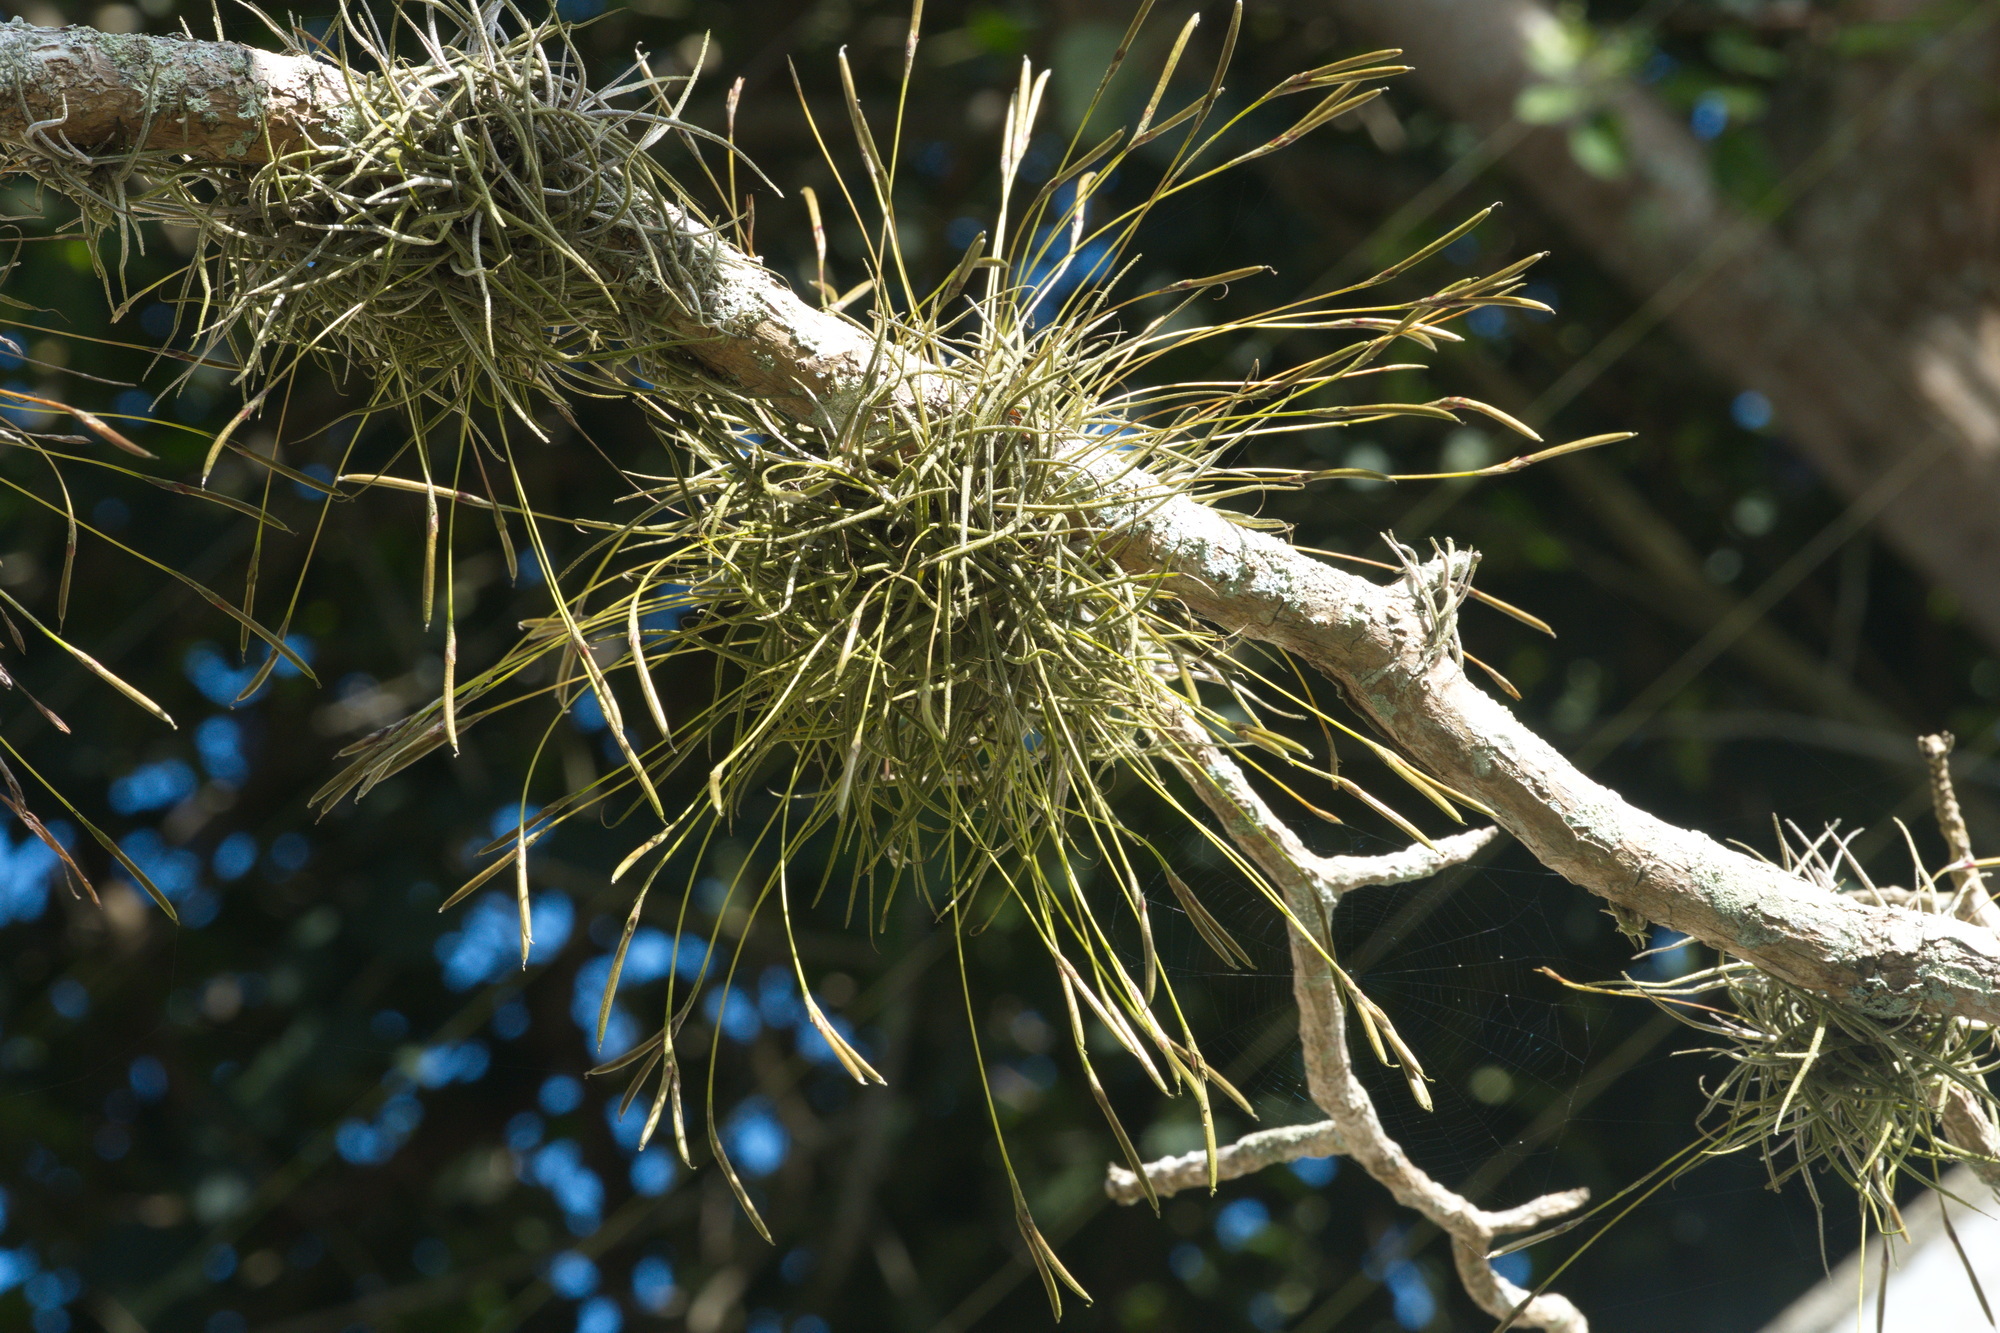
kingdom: Plantae
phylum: Tracheophyta
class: Liliopsida
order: Poales
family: Bromeliaceae
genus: Tillandsia
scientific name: Tillandsia recurvata
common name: Small ballmoss
